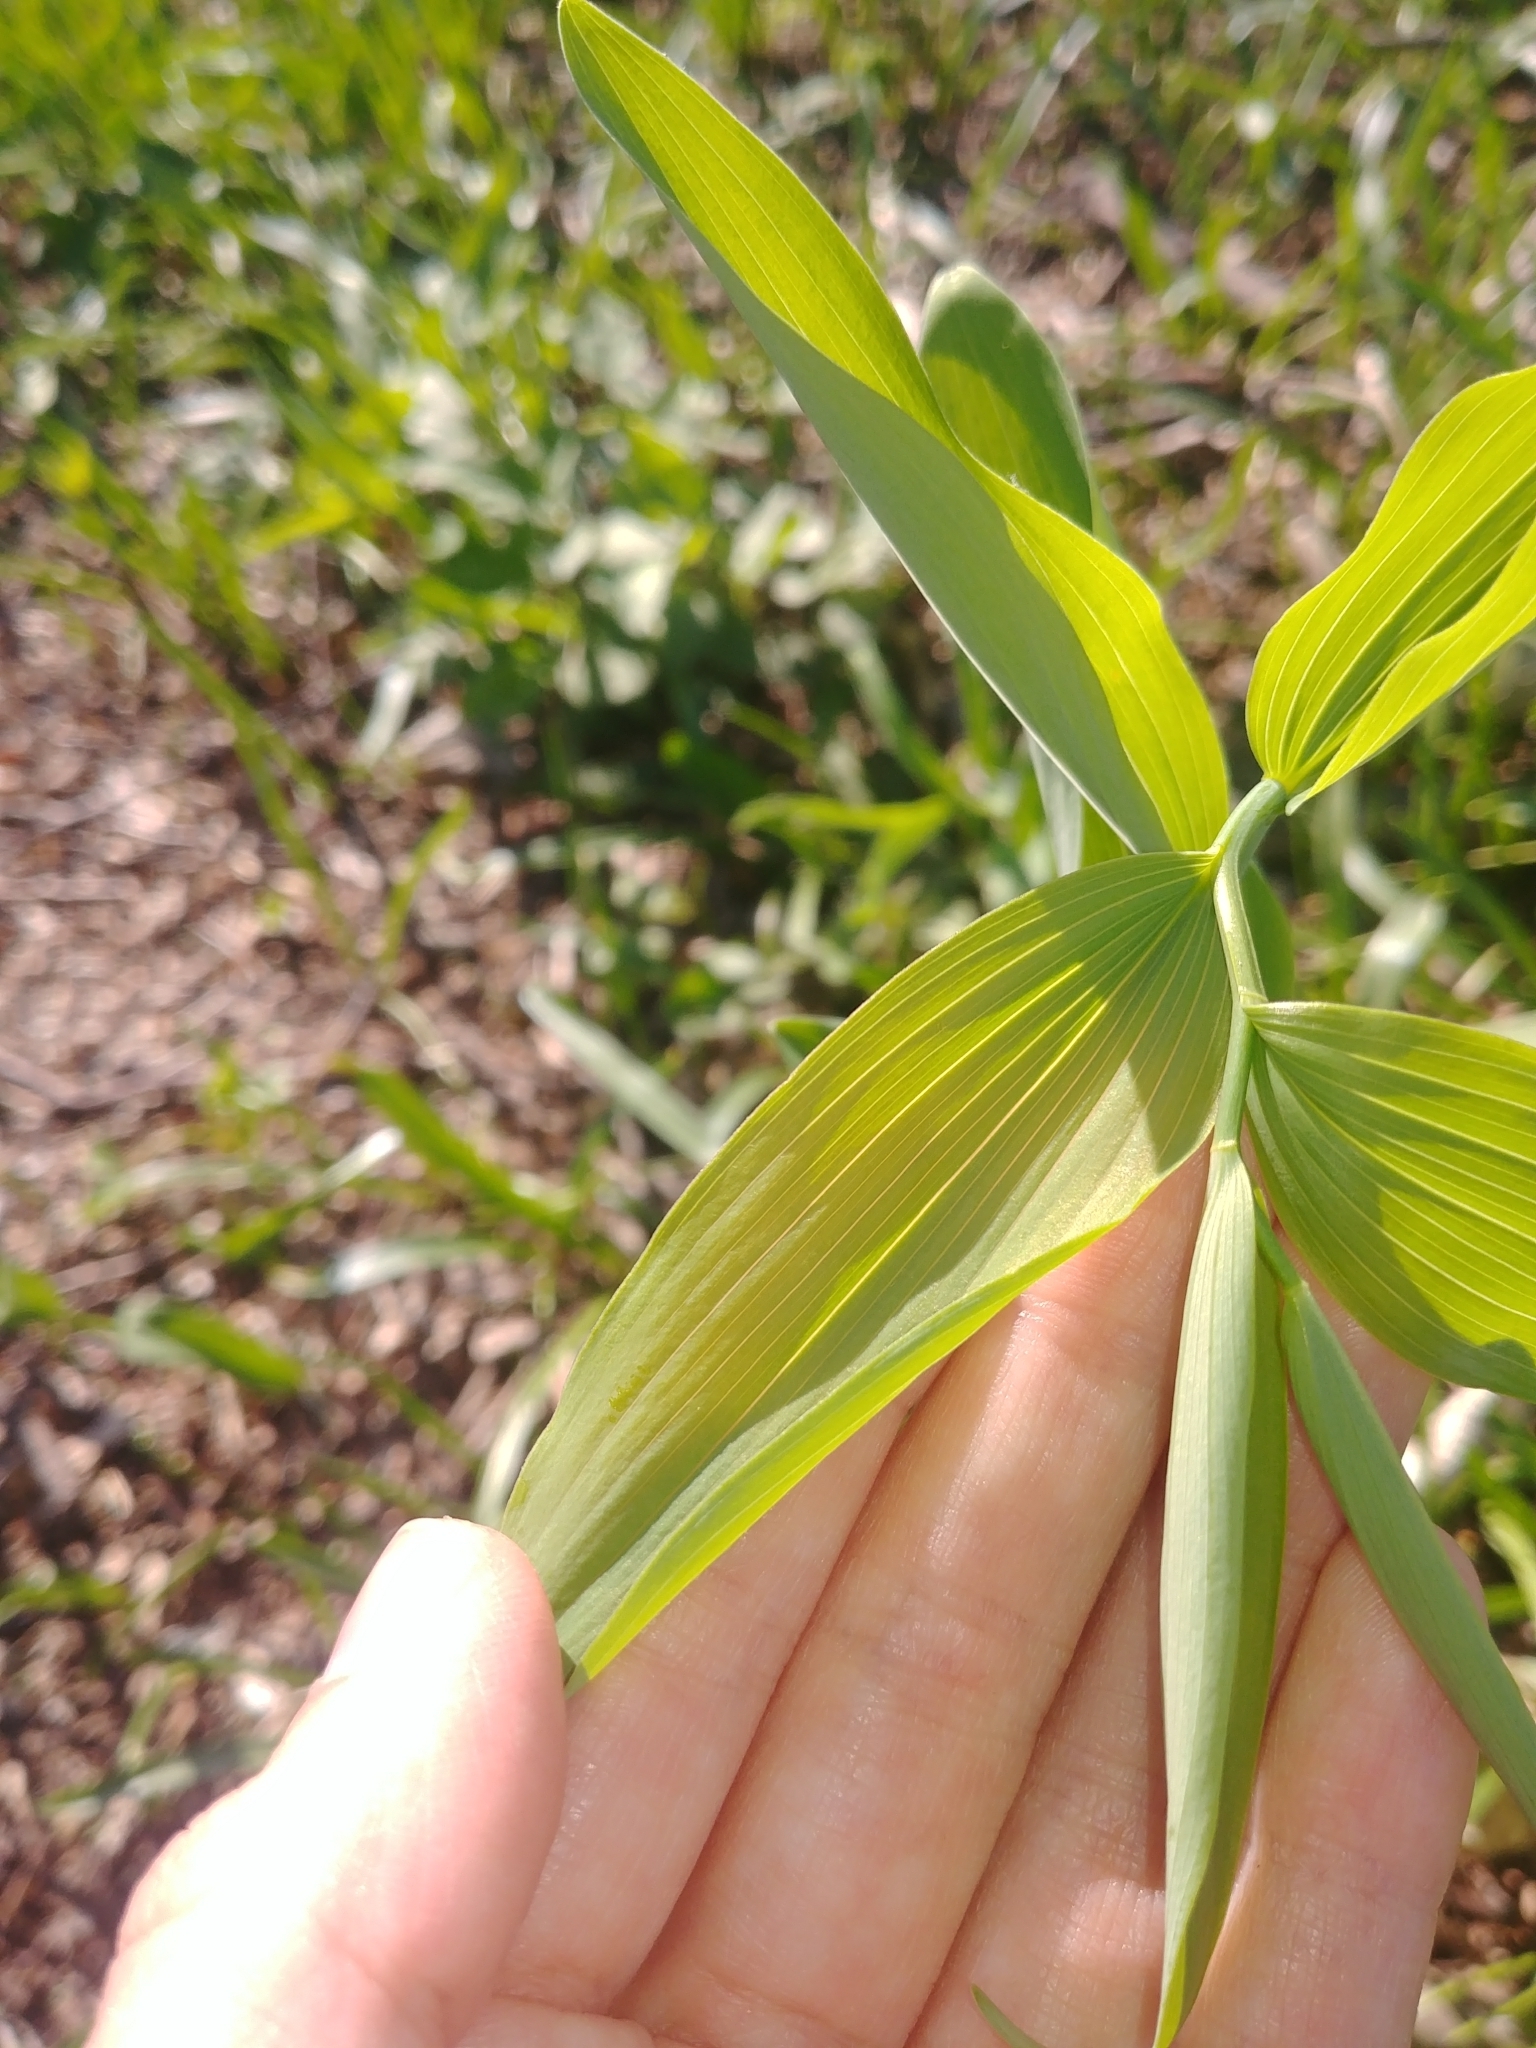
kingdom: Plantae
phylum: Tracheophyta
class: Liliopsida
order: Asparagales
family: Asparagaceae
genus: Polygonatum
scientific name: Polygonatum biflorum
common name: American solomon's-seal
